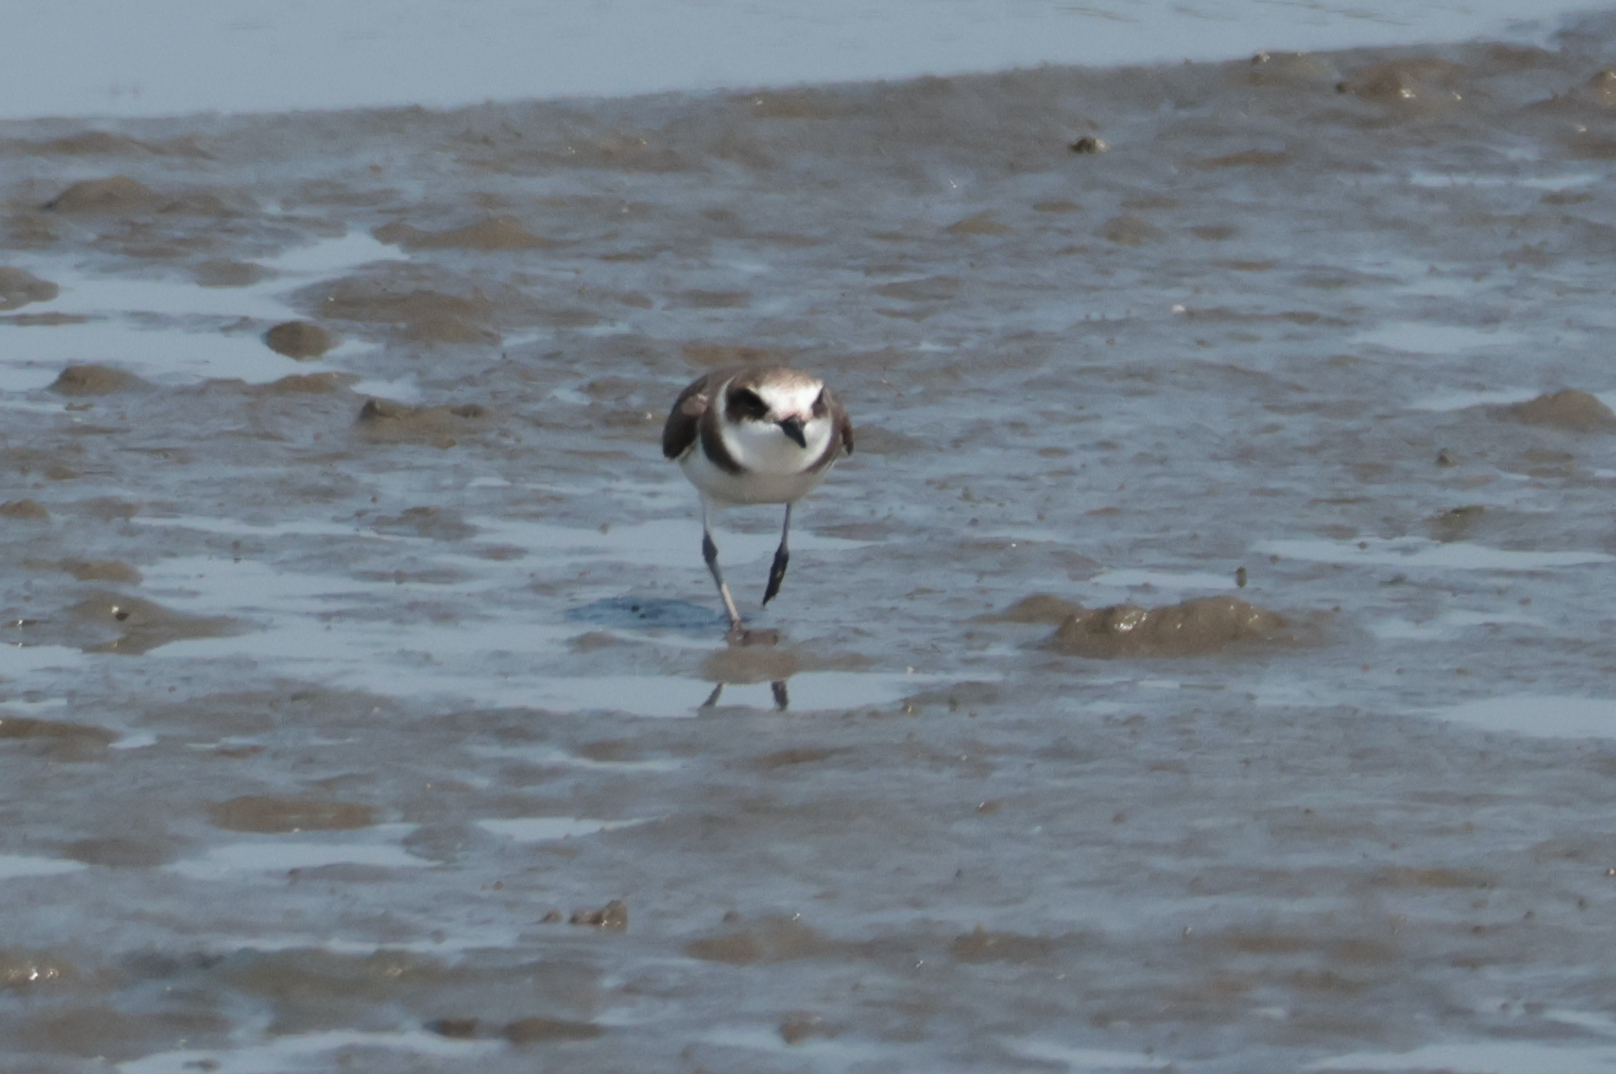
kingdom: Animalia
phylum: Chordata
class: Aves
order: Charadriiformes
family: Charadriidae
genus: Charadrius
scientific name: Charadrius alexandrinus
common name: Kentish plover
